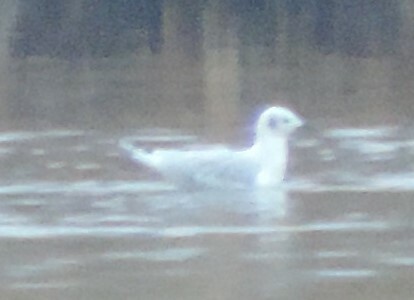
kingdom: Animalia
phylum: Chordata
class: Aves
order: Charadriiformes
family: Laridae
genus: Chroicocephalus
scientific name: Chroicocephalus philadelphia
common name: Bonaparte's gull
